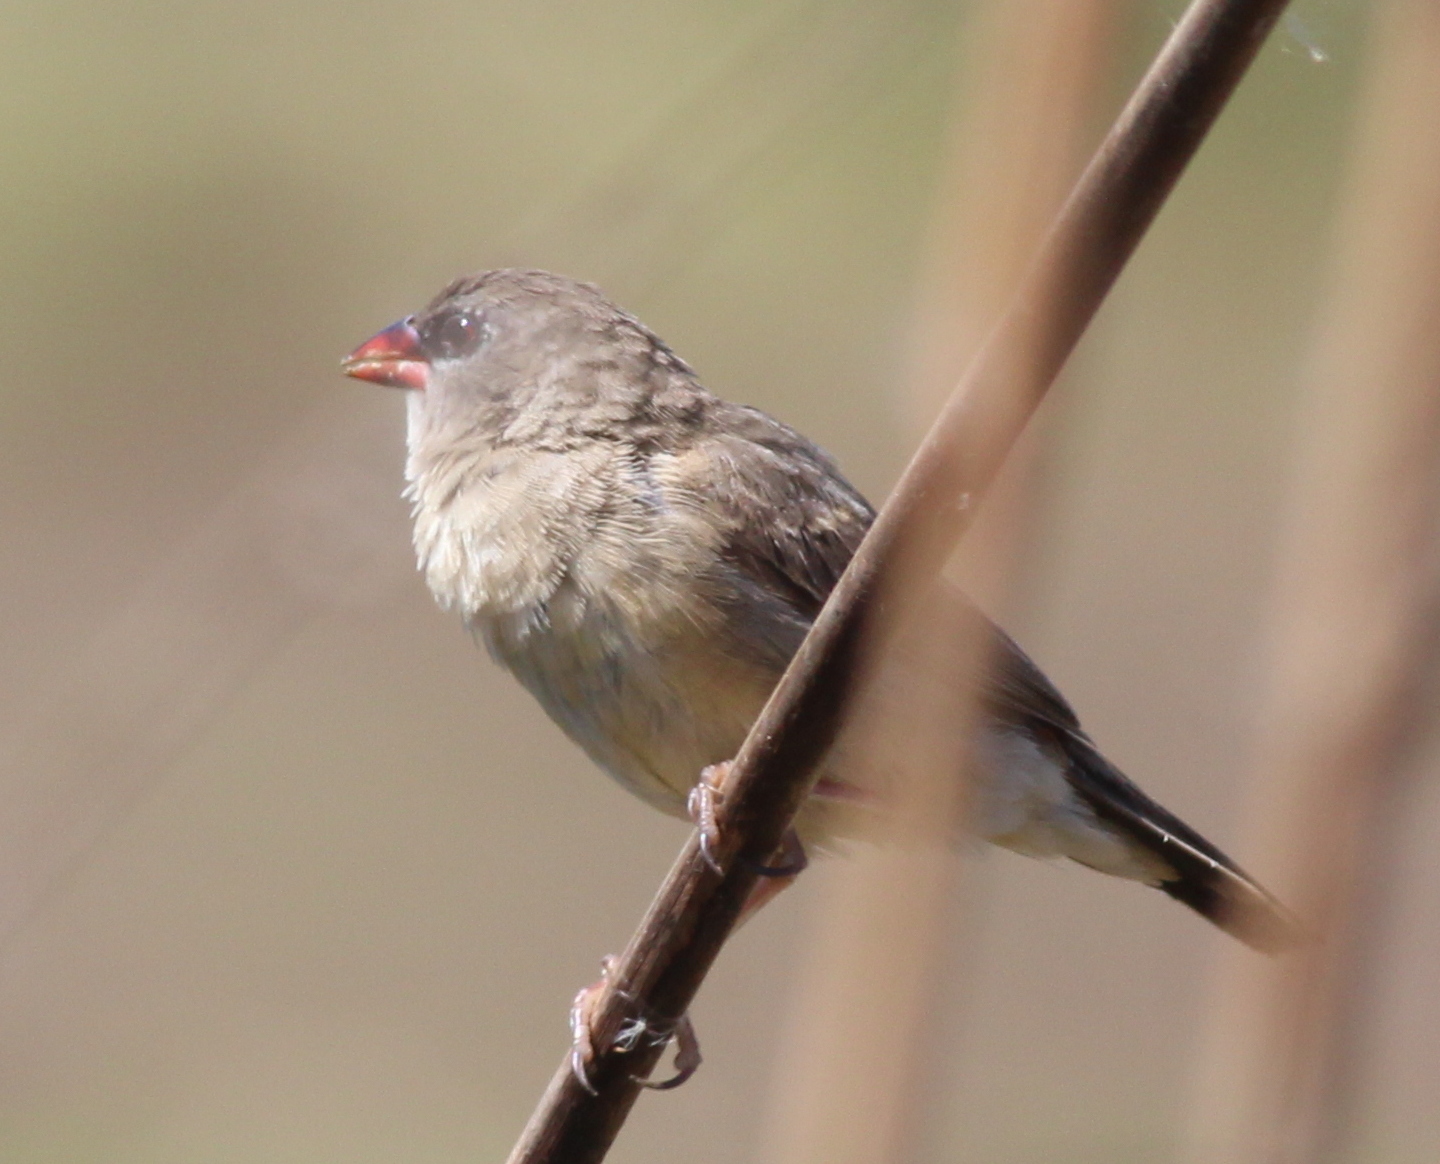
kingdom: Animalia
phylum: Chordata
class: Aves
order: Passeriformes
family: Estrildidae
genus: Amandava
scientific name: Amandava amandava
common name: Red avadavat
